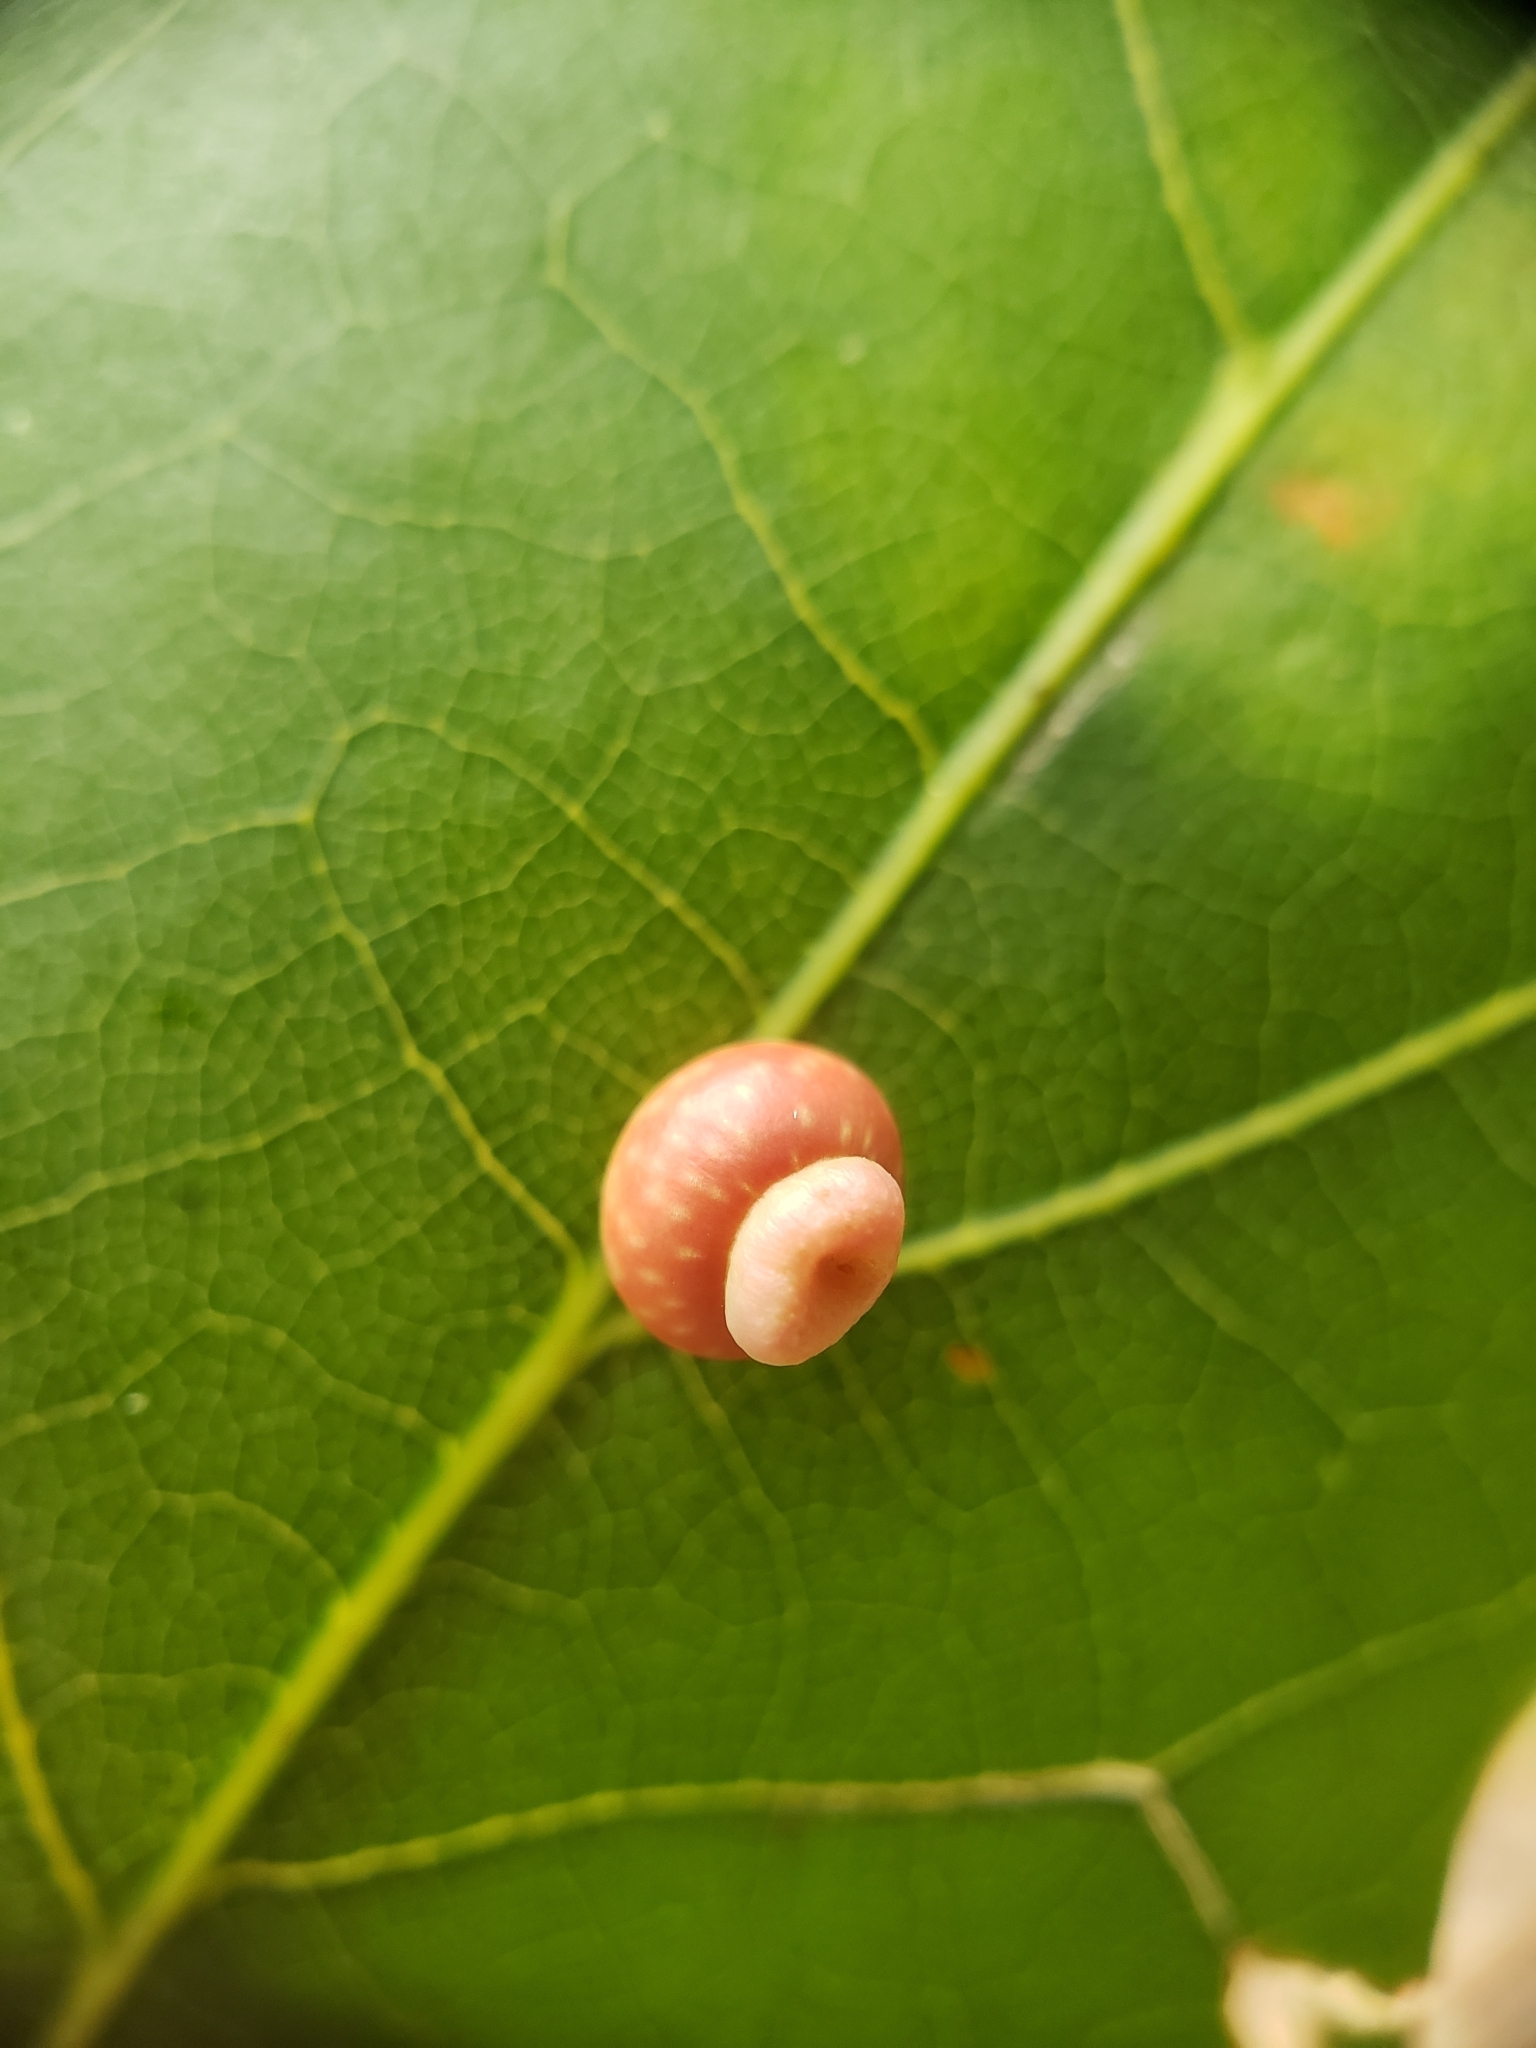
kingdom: Animalia
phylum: Arthropoda
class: Insecta
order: Hymenoptera
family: Cynipidae
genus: Kokkocynips
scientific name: Kokkocynips rileyi
